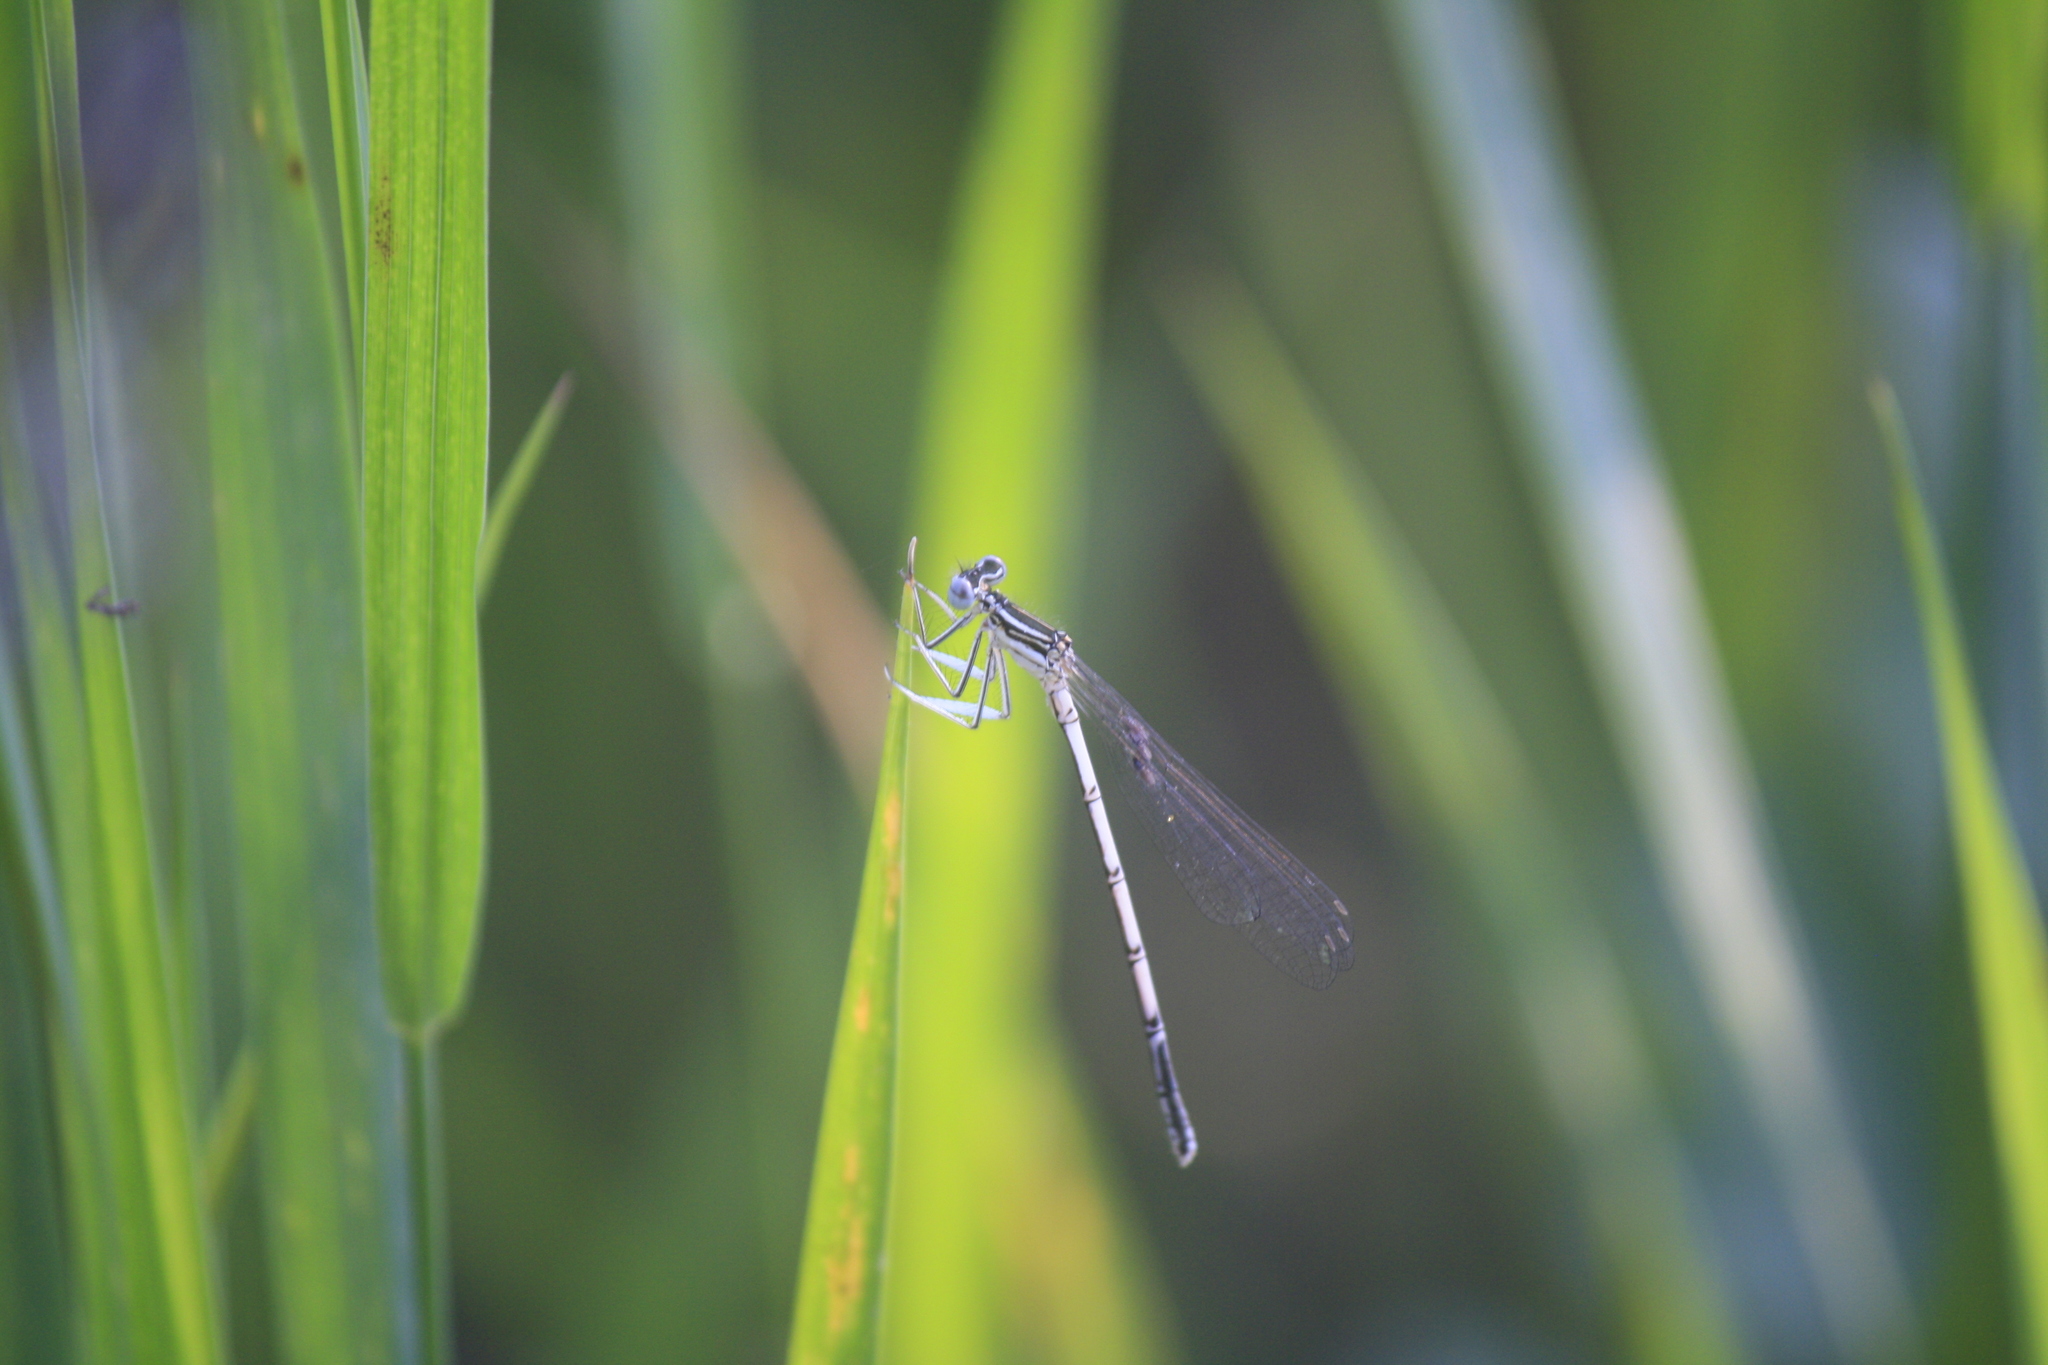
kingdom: Animalia
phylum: Arthropoda
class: Insecta
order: Odonata
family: Platycnemididae
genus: Platycnemis
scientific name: Platycnemis pennipes
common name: White-legged damselfly
